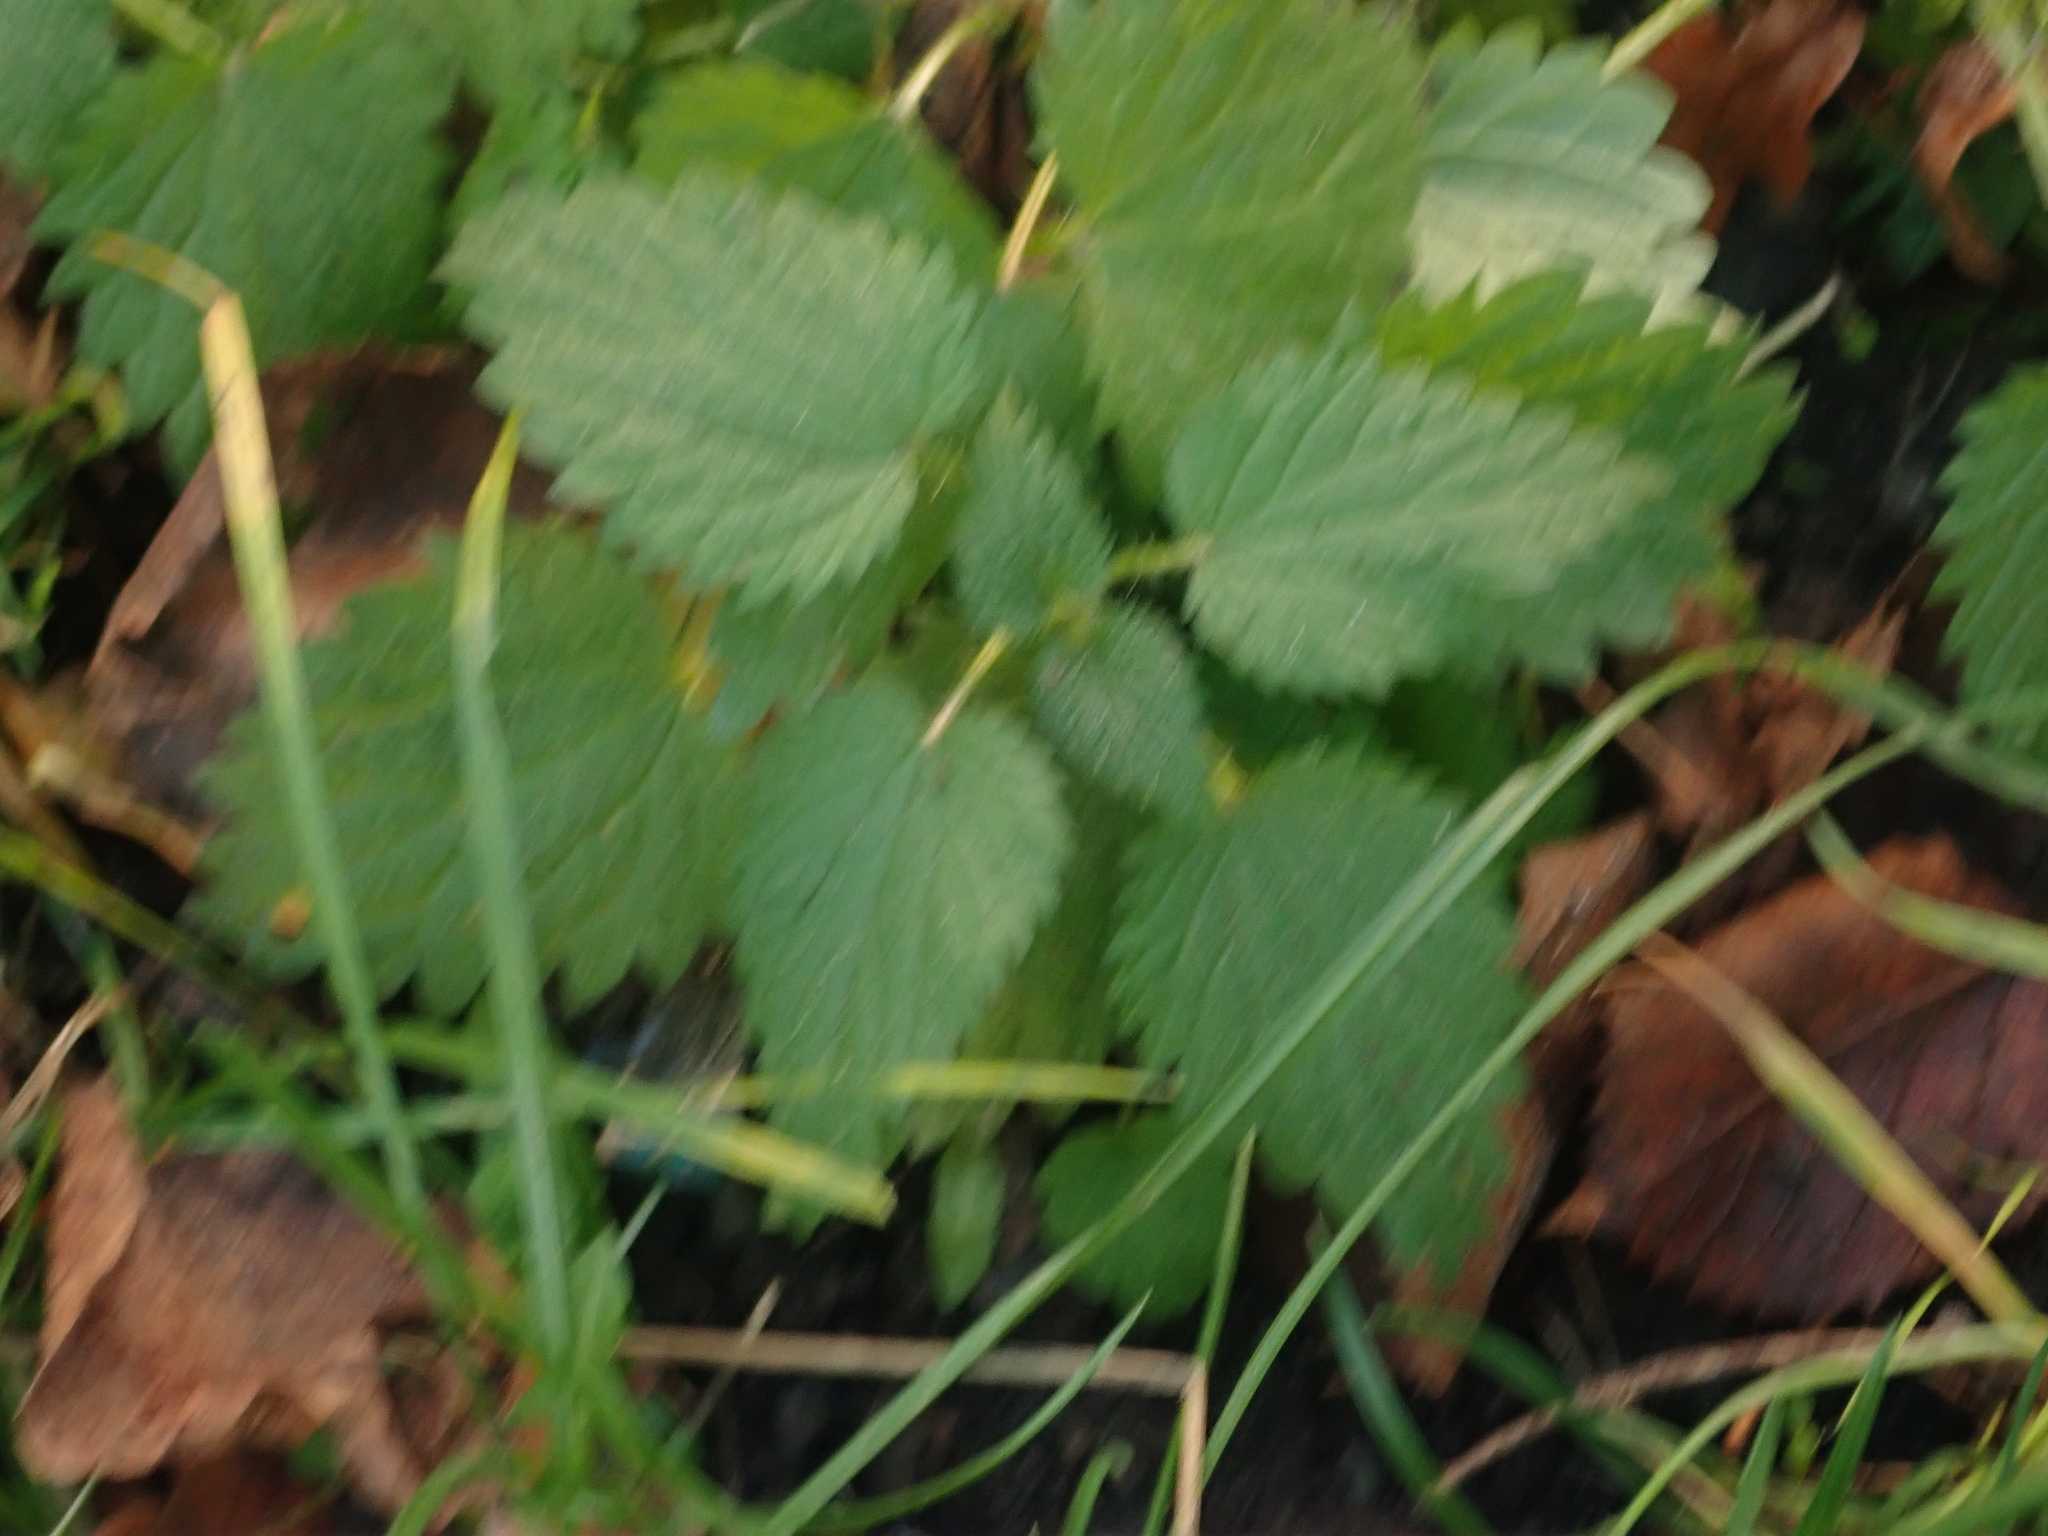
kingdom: Plantae
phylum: Tracheophyta
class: Magnoliopsida
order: Rosales
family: Urticaceae
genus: Urtica
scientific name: Urtica dioica
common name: Common nettle
